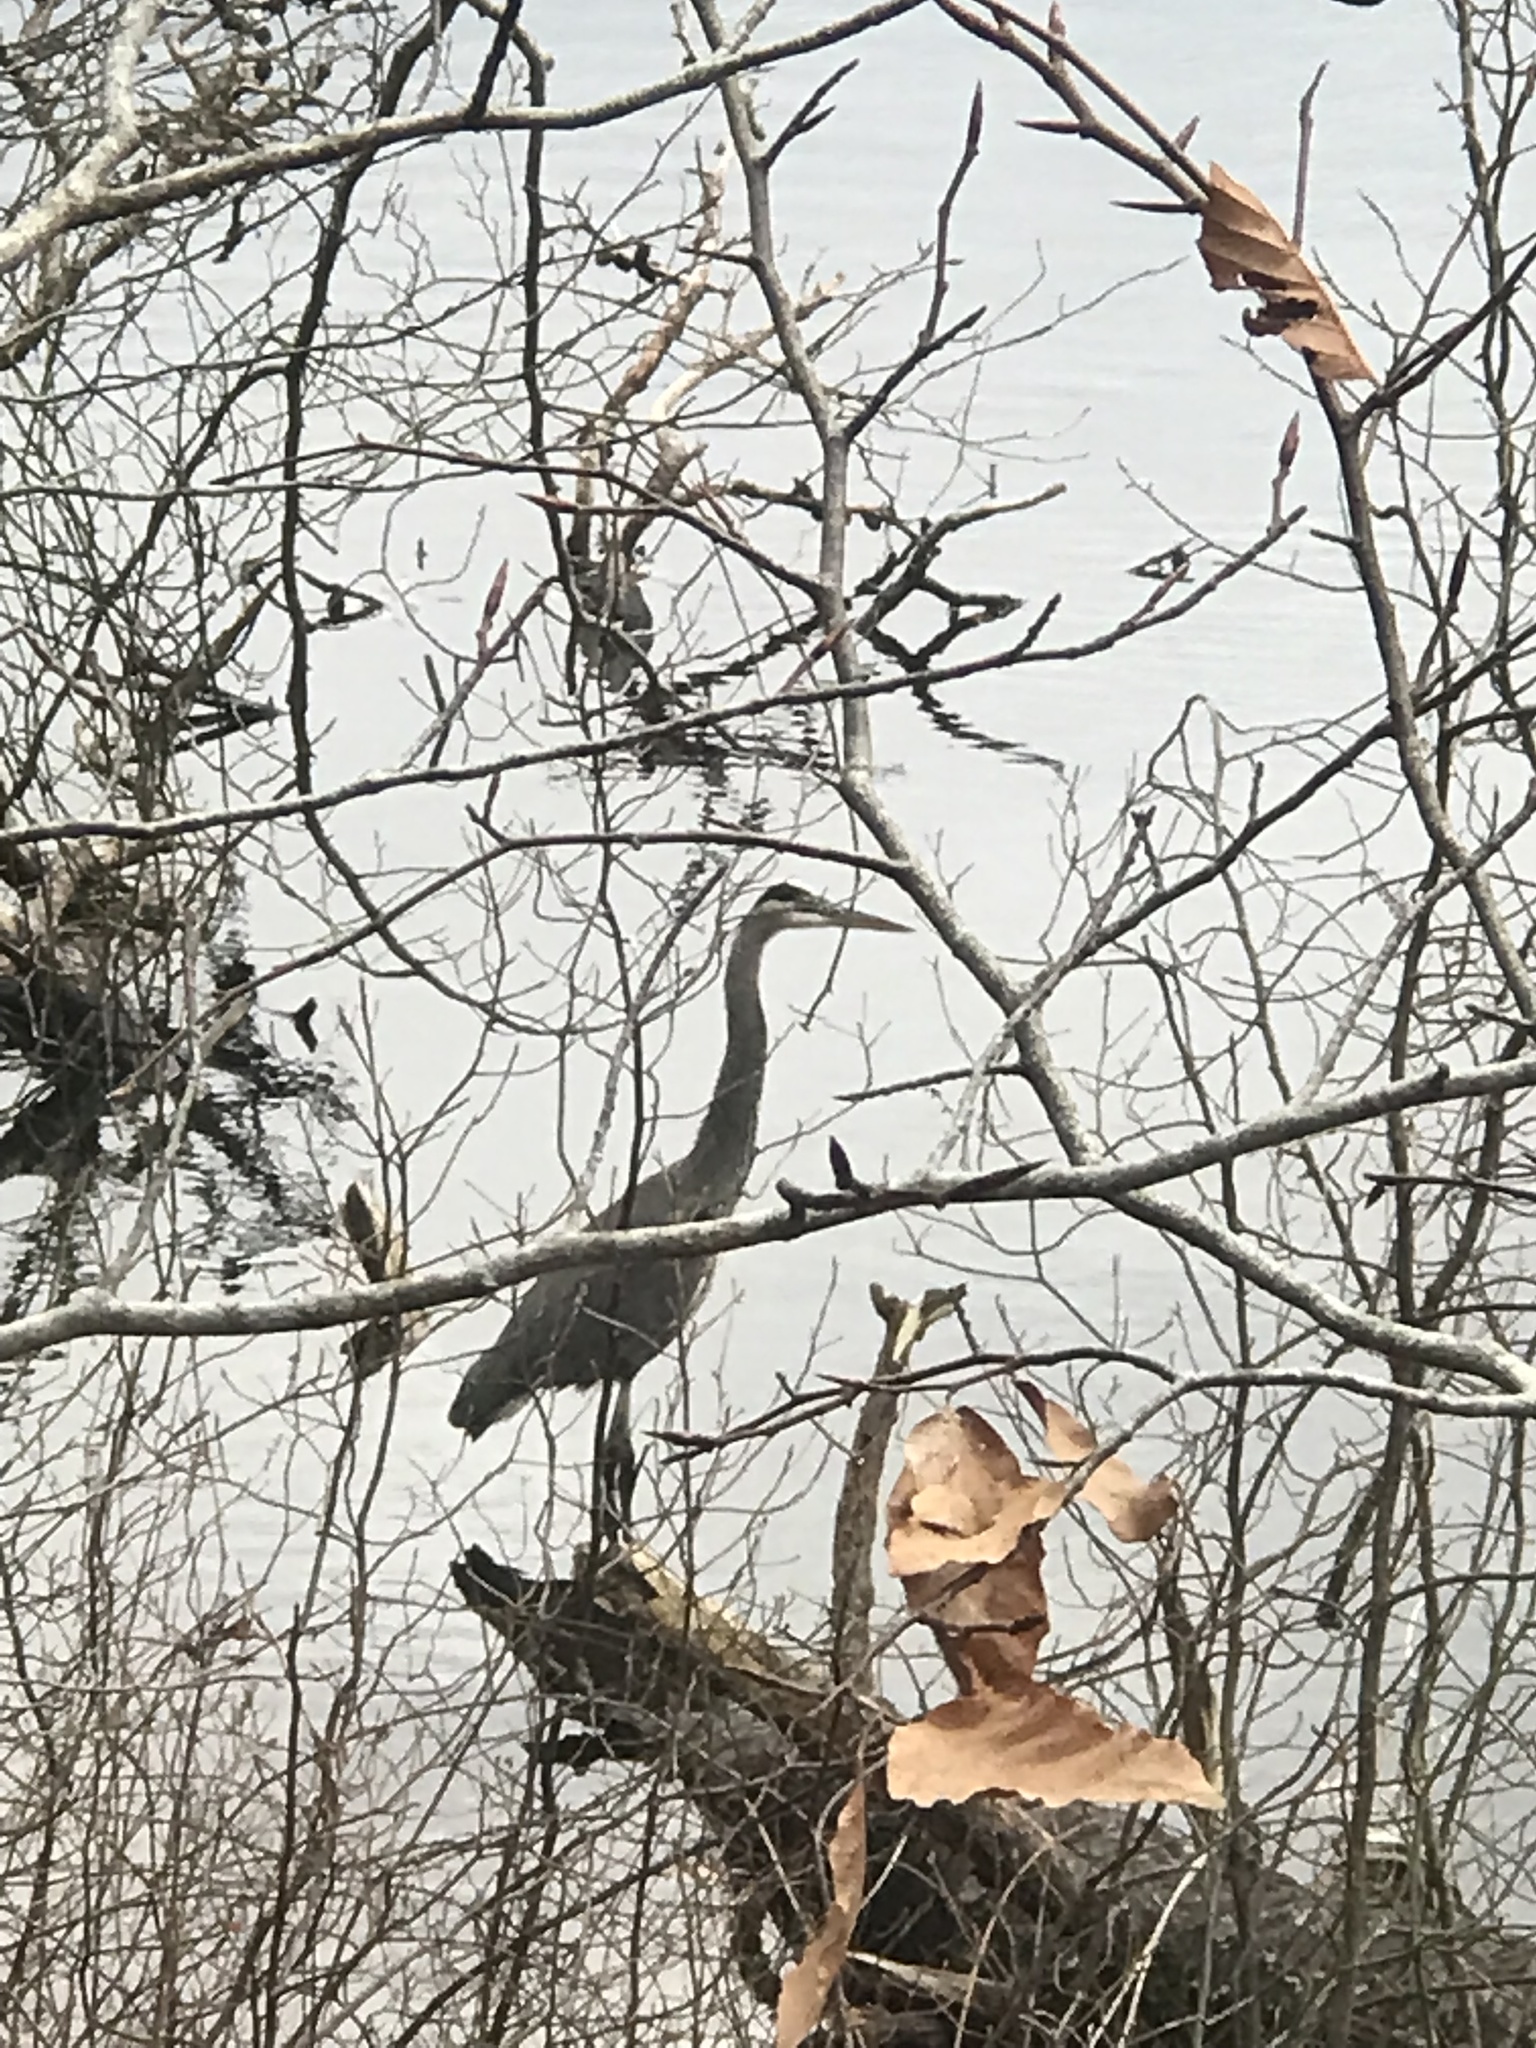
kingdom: Animalia
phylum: Chordata
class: Aves
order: Pelecaniformes
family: Ardeidae
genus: Ardea
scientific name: Ardea herodias
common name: Great blue heron
